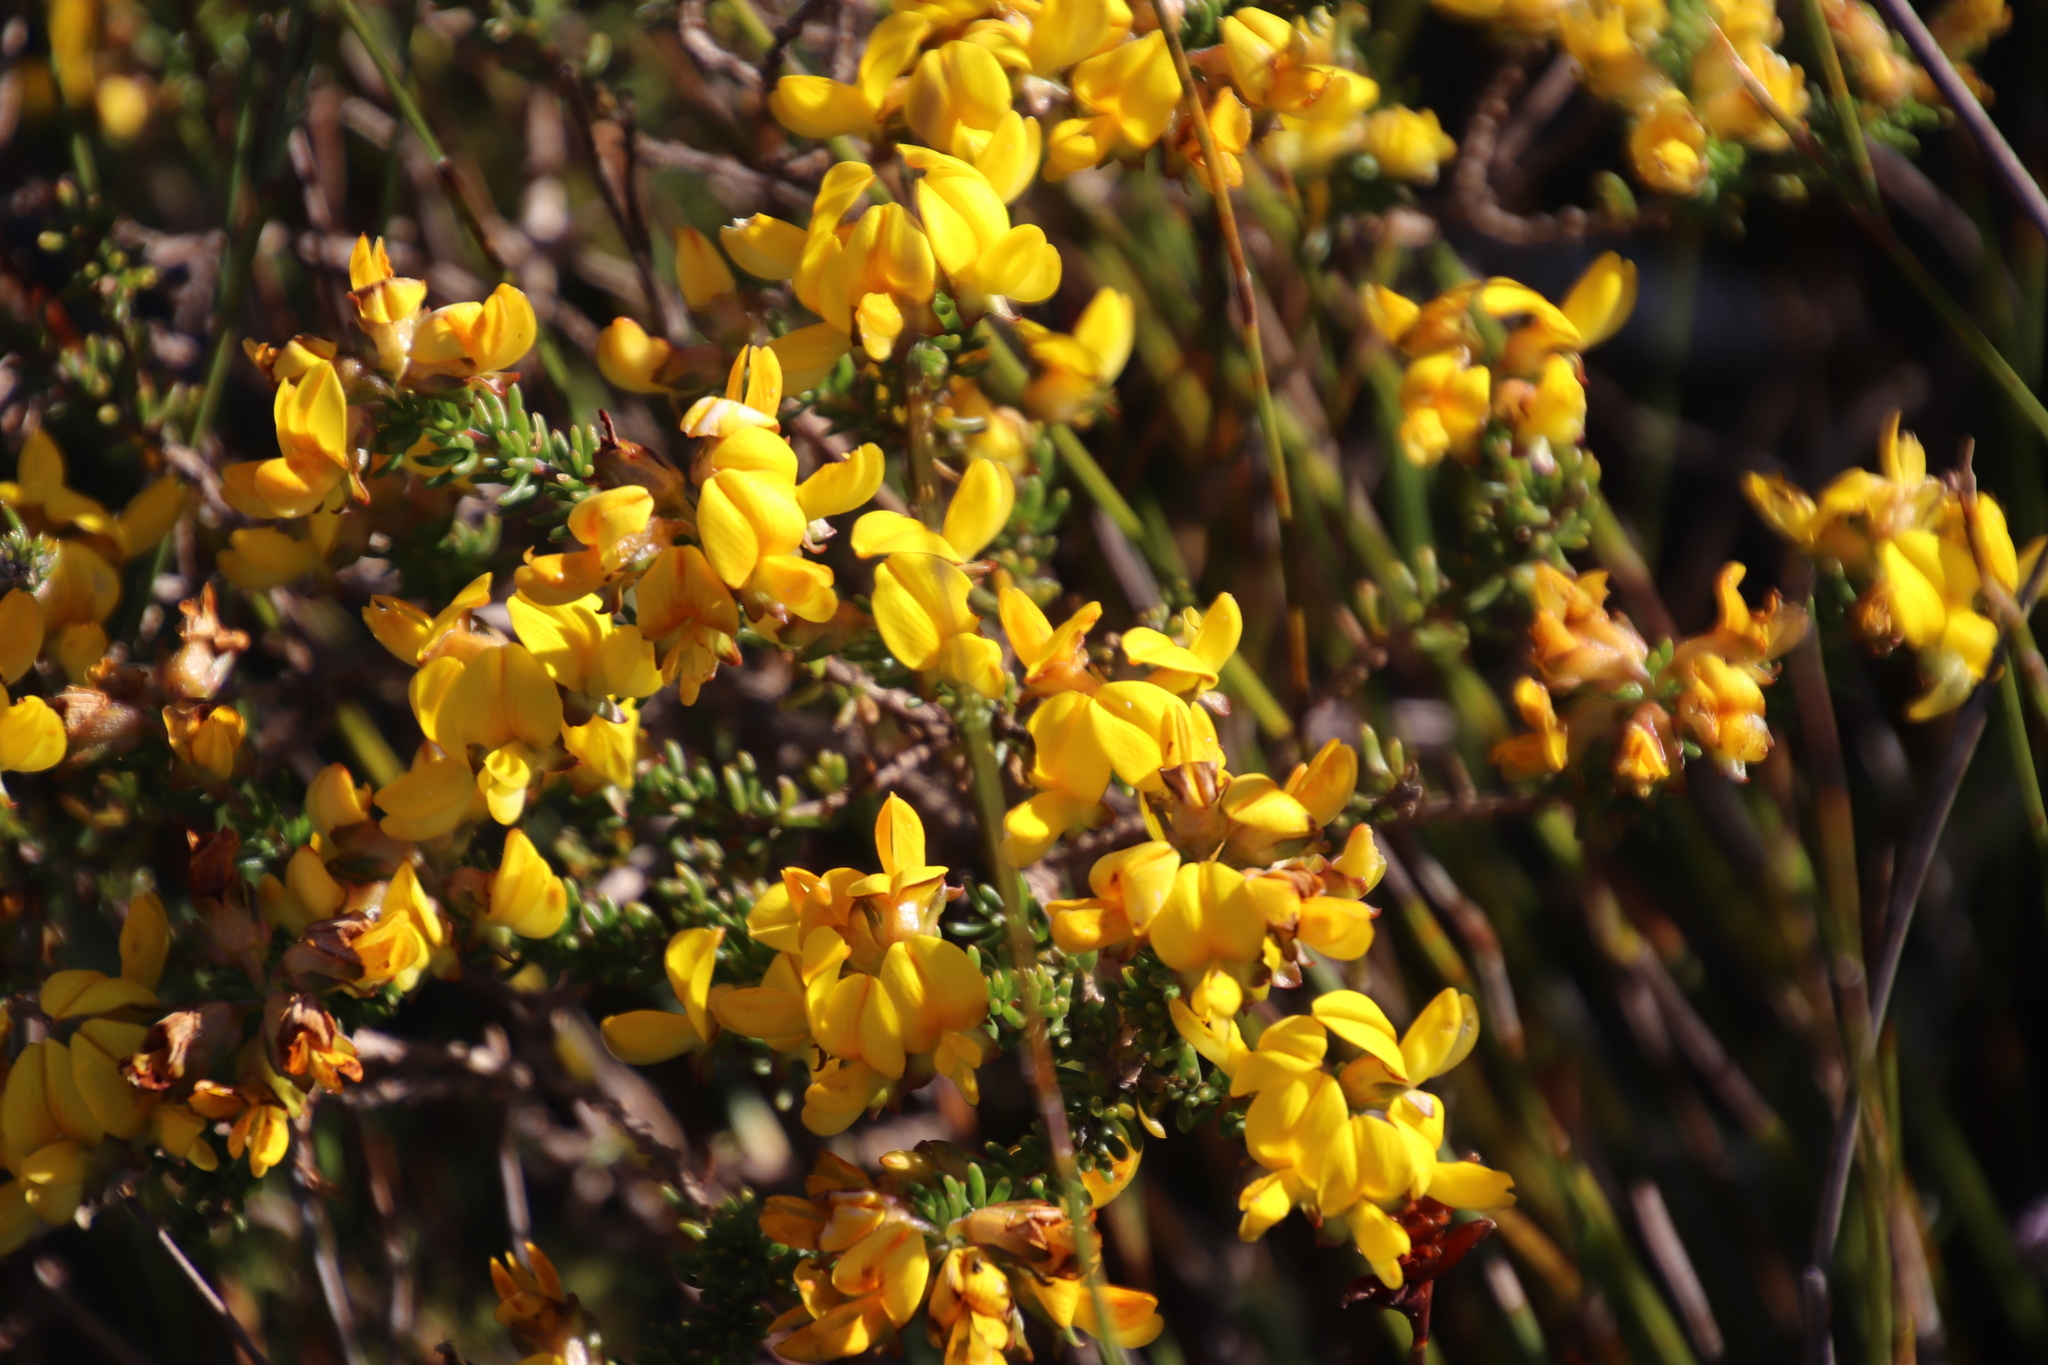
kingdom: Plantae
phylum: Tracheophyta
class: Magnoliopsida
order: Fabales
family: Fabaceae
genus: Aspalathus
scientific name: Aspalathus carnosa
